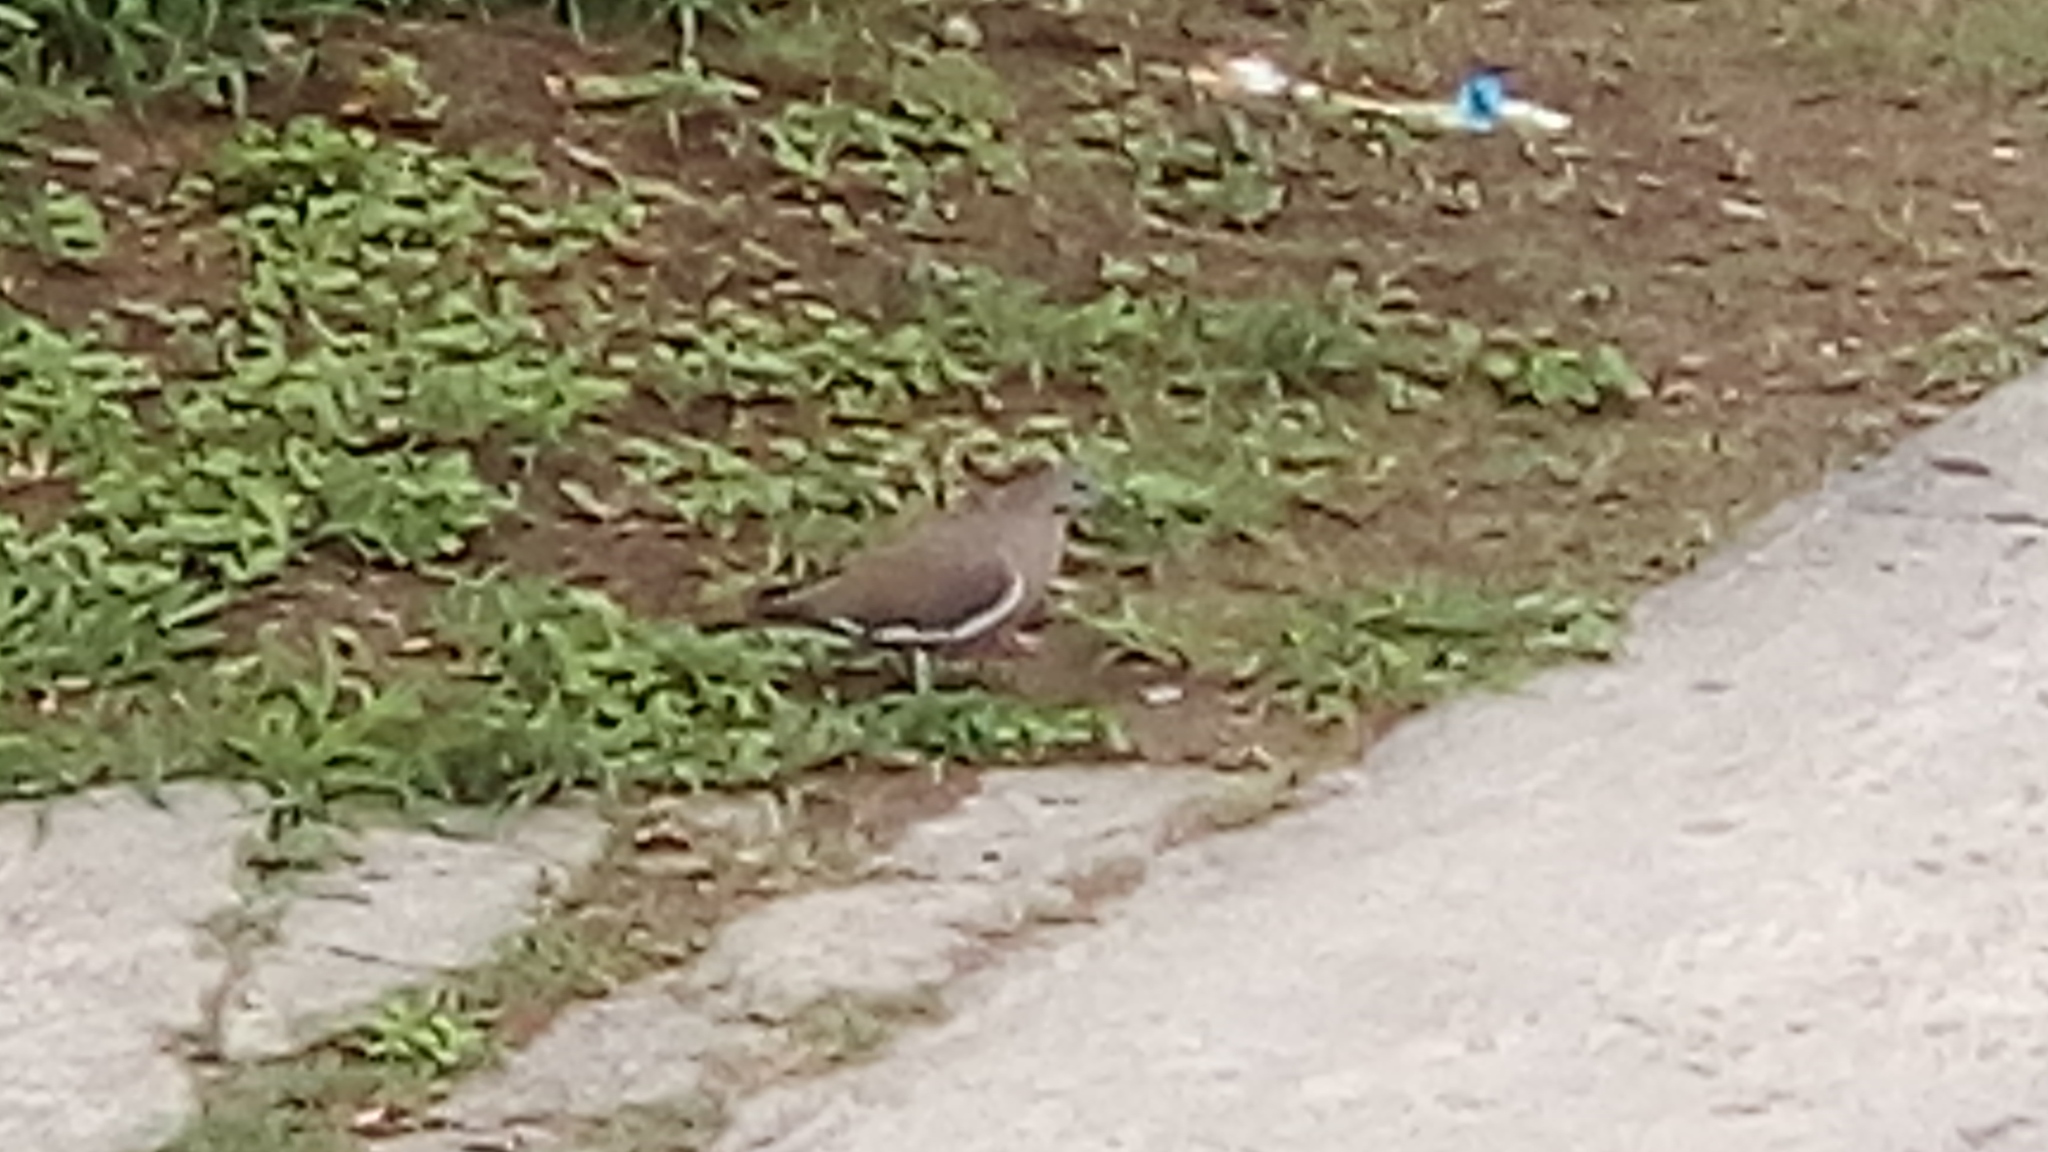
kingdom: Animalia
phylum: Chordata
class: Aves
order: Columbiformes
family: Columbidae
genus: Zenaida
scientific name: Zenaida asiatica
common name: White-winged dove
